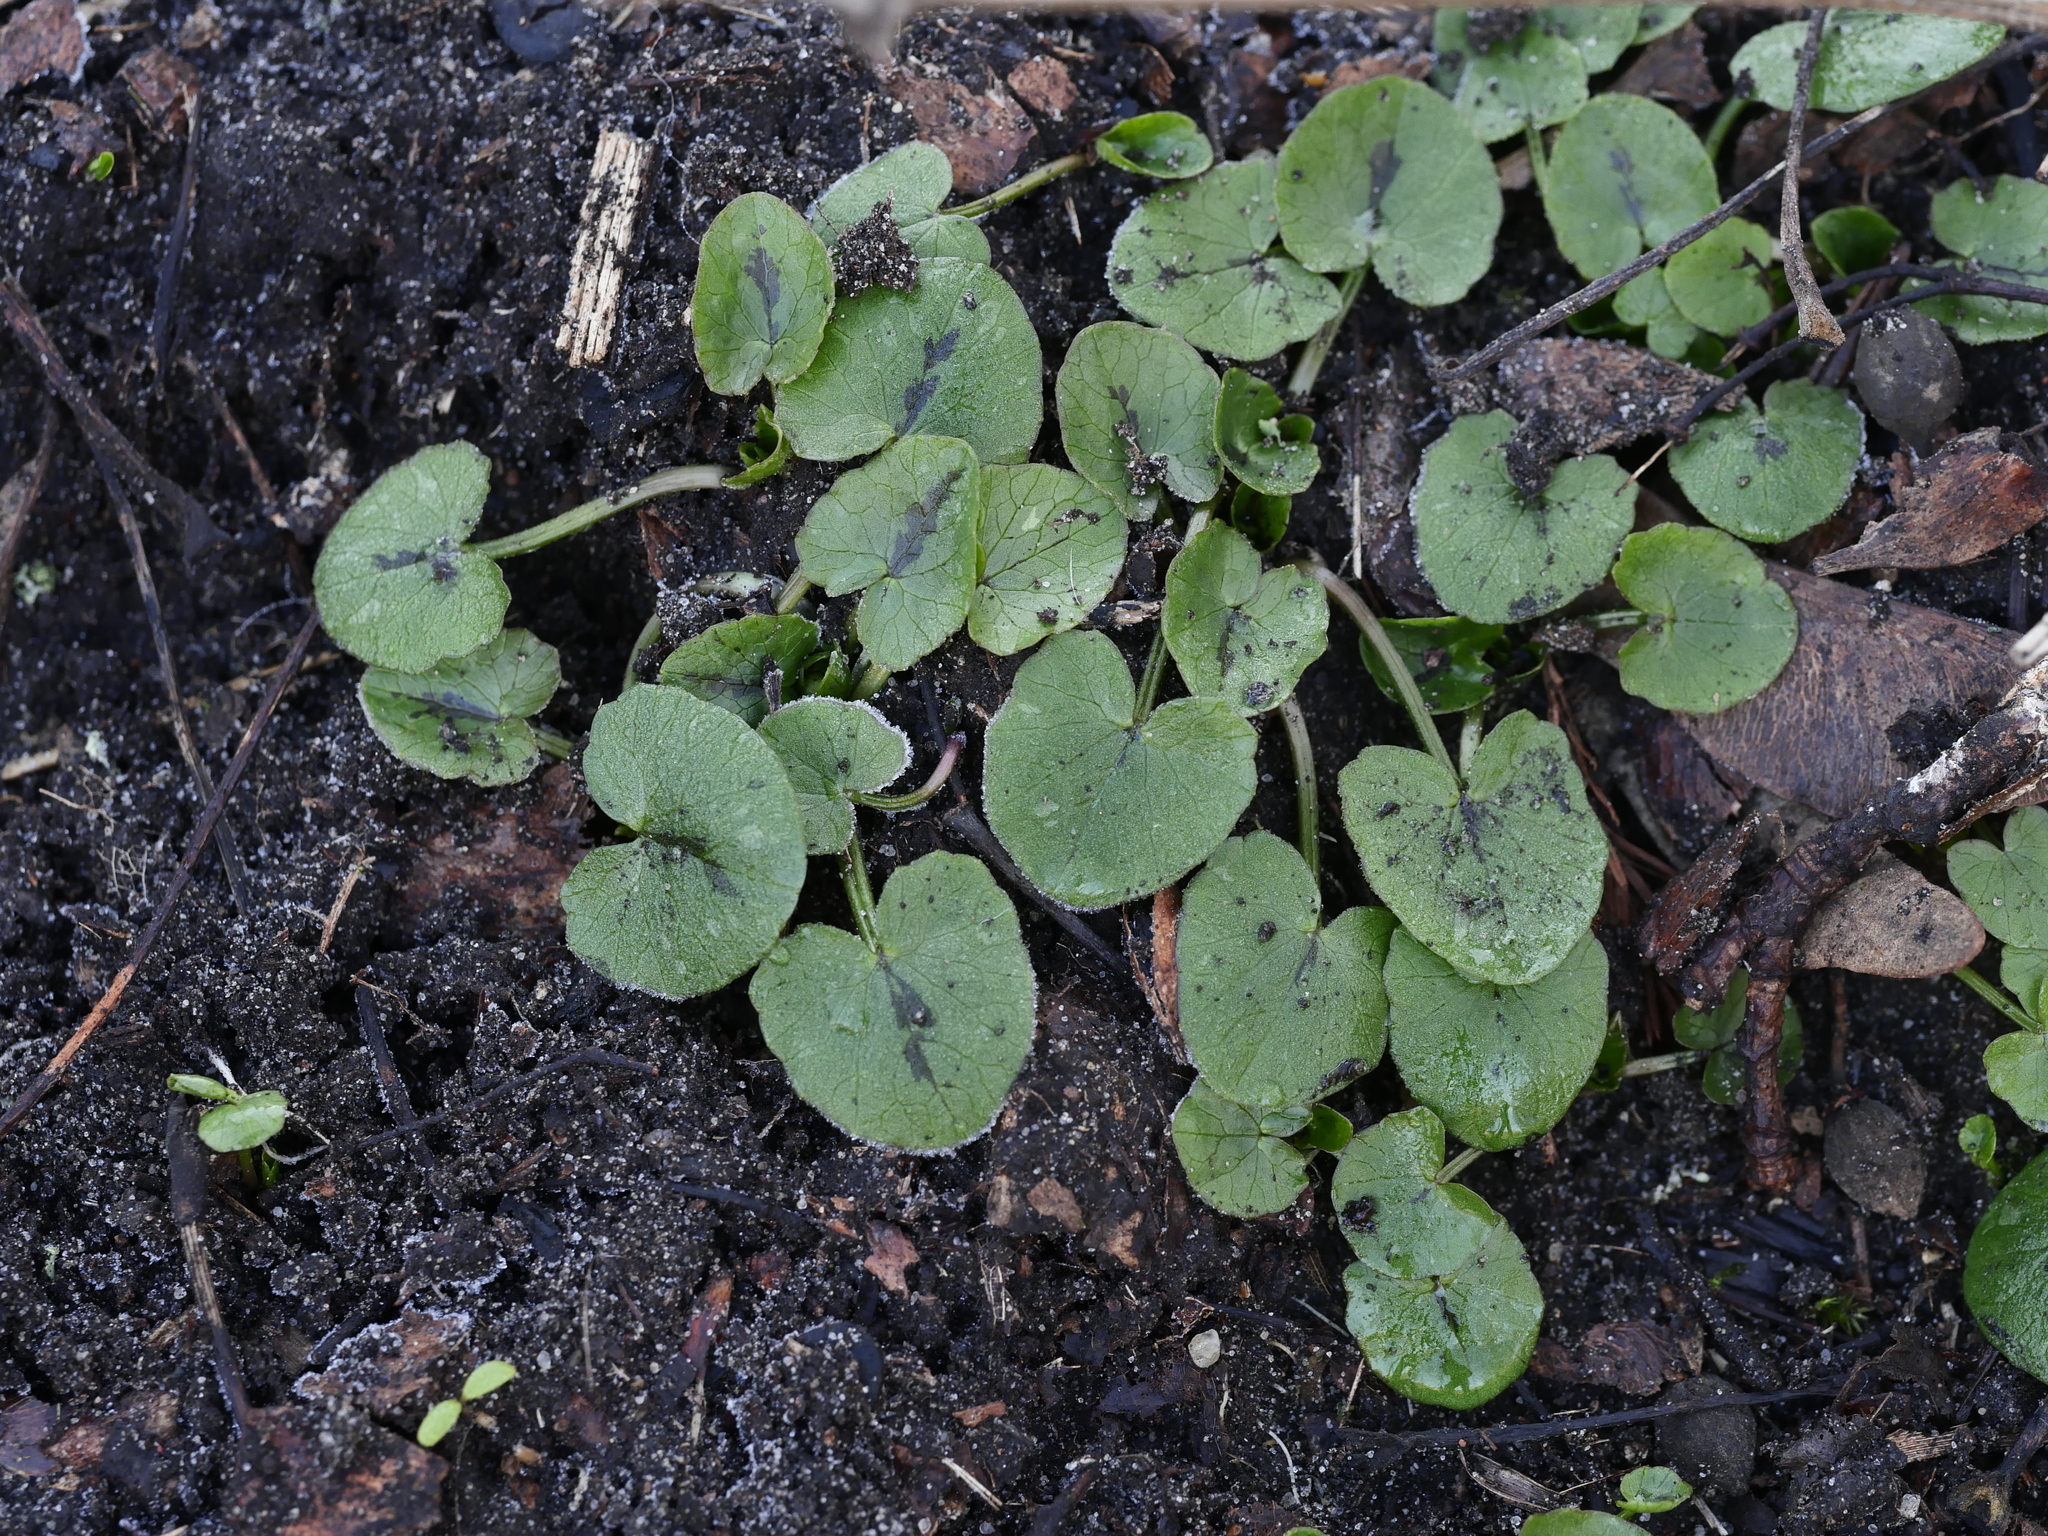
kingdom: Plantae
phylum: Tracheophyta
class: Magnoliopsida
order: Ranunculales
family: Ranunculaceae
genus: Ficaria
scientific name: Ficaria verna
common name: Lesser celandine
